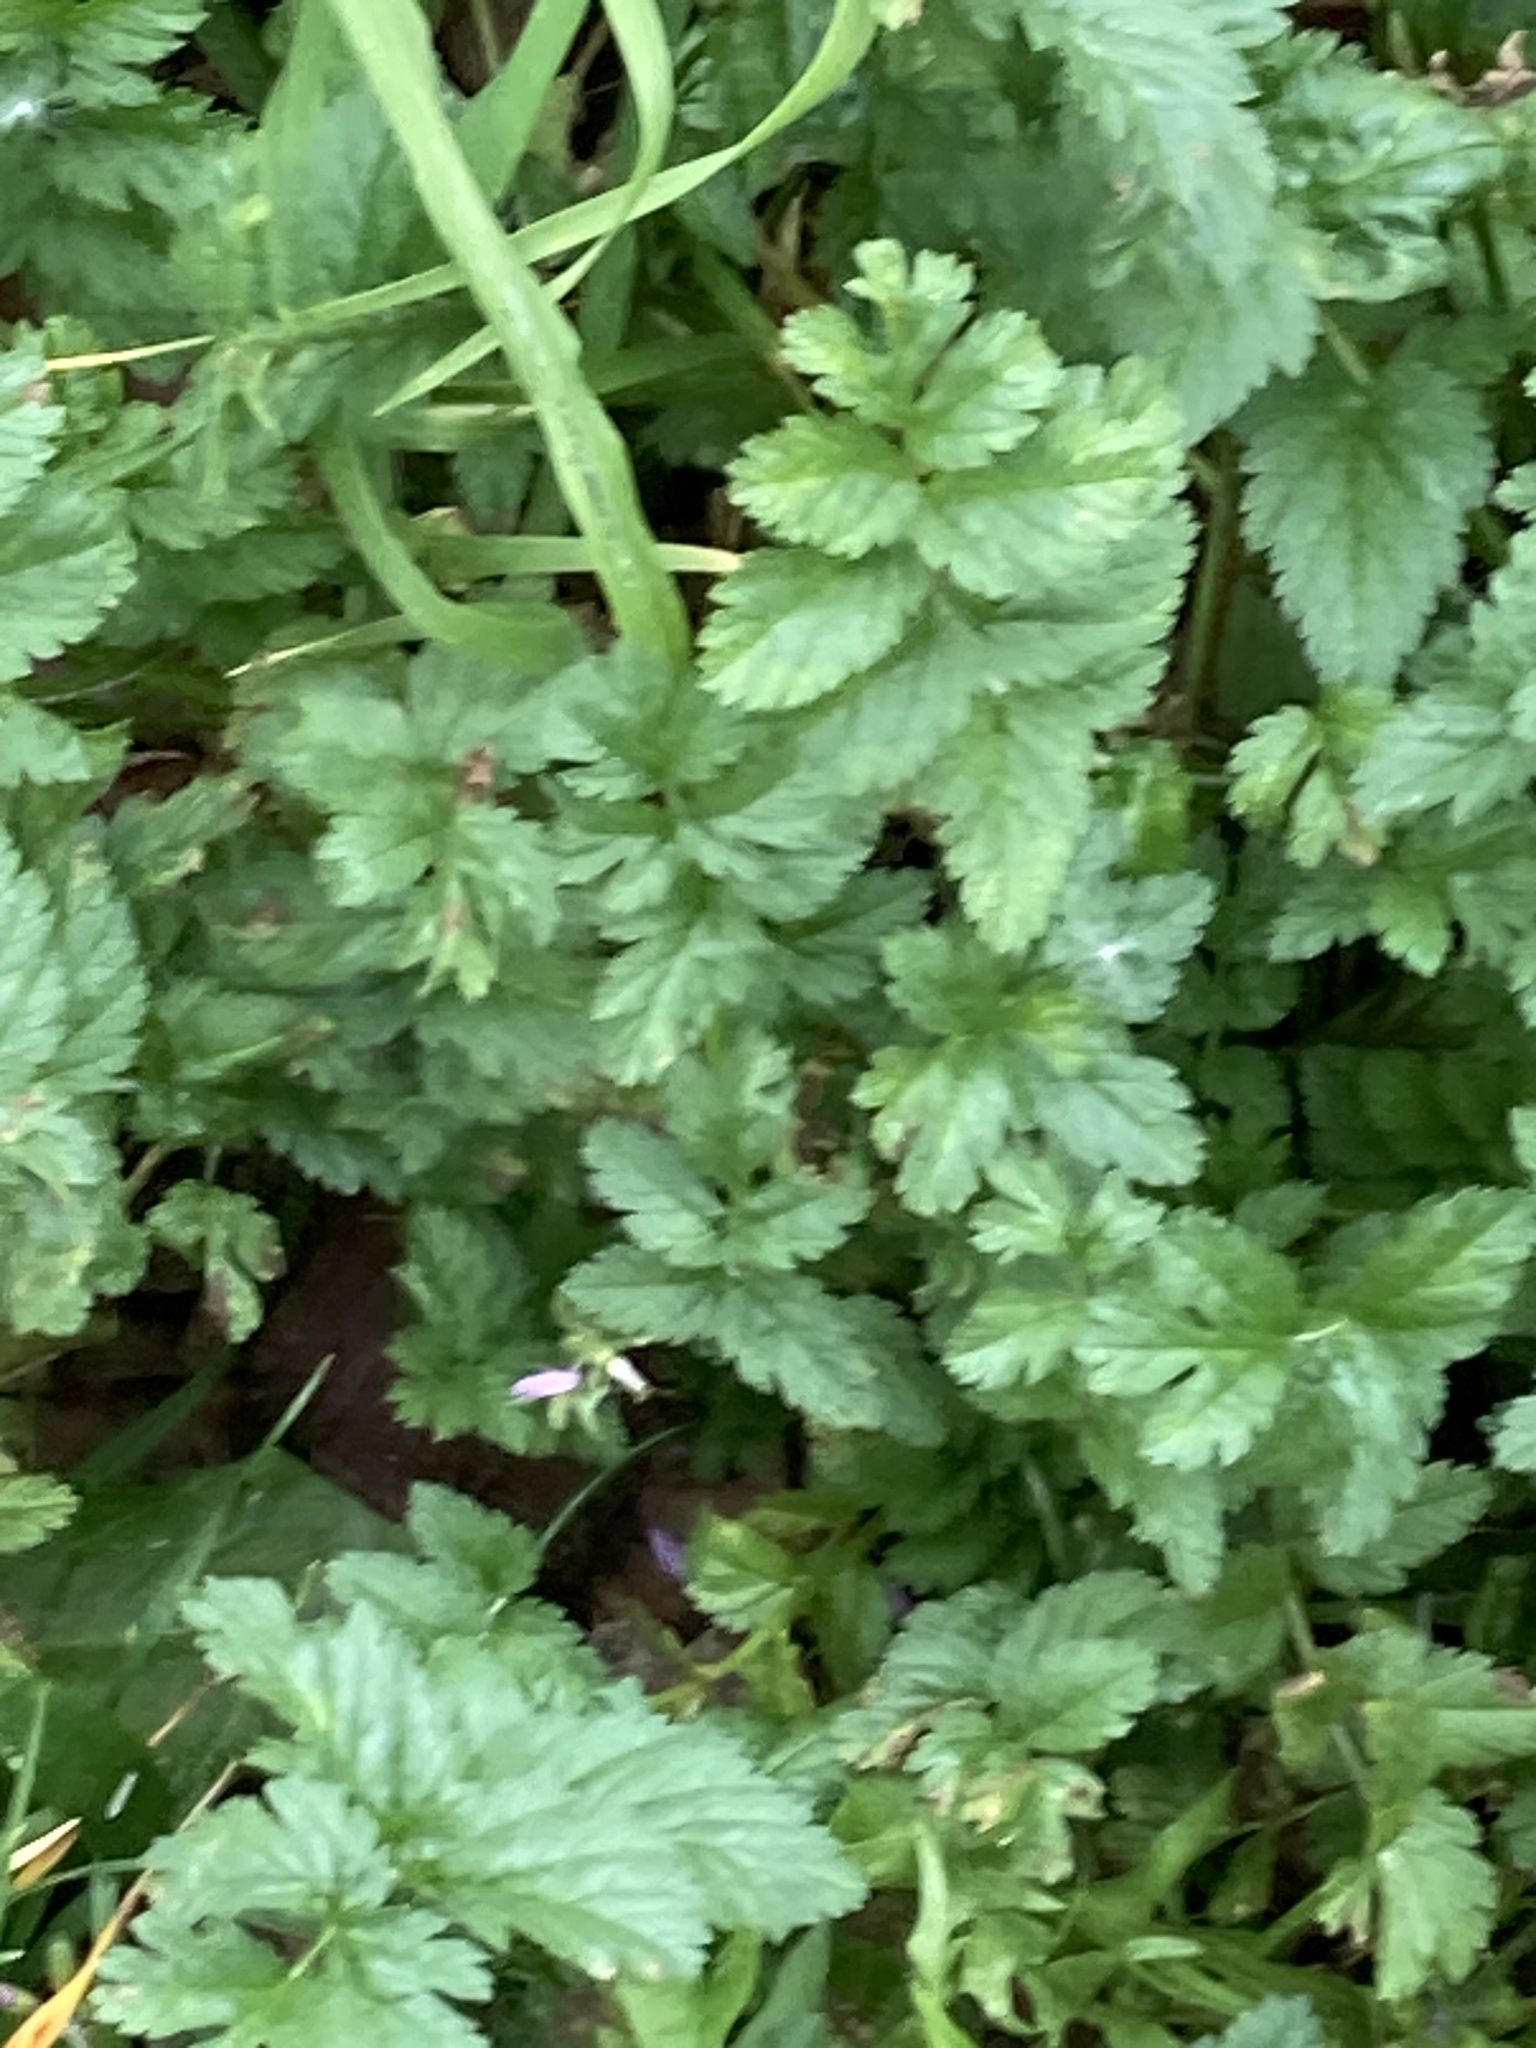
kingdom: Plantae
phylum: Tracheophyta
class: Magnoliopsida
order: Geraniales
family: Geraniaceae
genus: Erodium
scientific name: Erodium moschatum
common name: Musk stork's-bill
